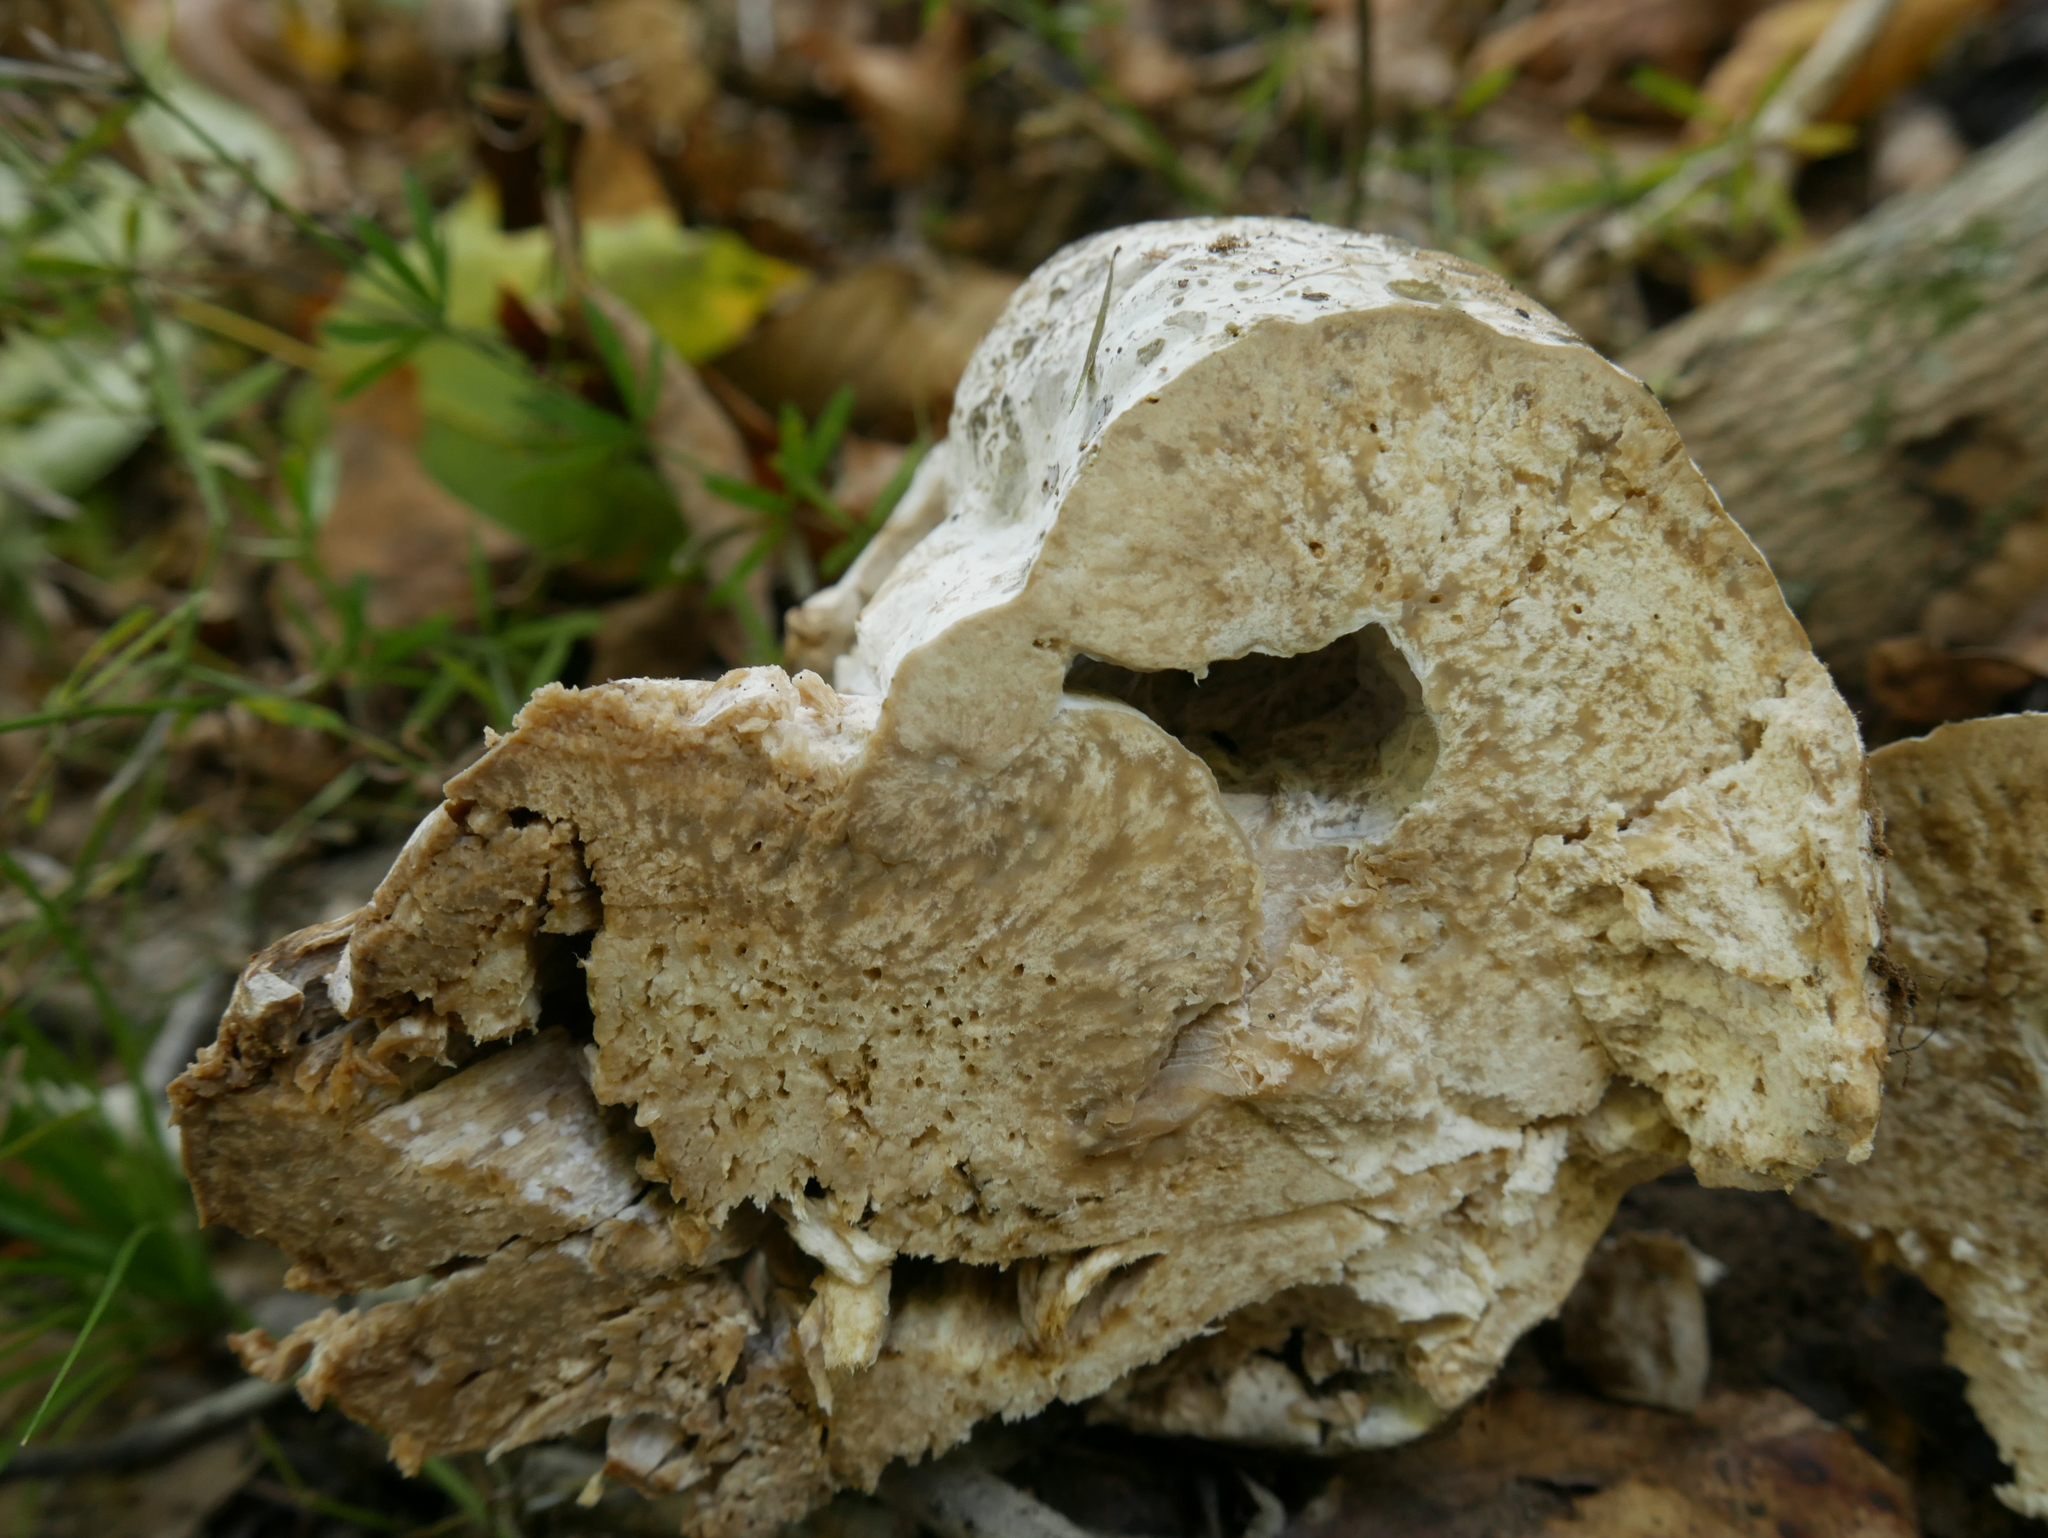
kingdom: Fungi
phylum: Ascomycota
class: Sordariomycetes
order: Hypocreales
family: Hypocreaceae
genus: Hypomyces
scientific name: Hypomyces melanocarpus
